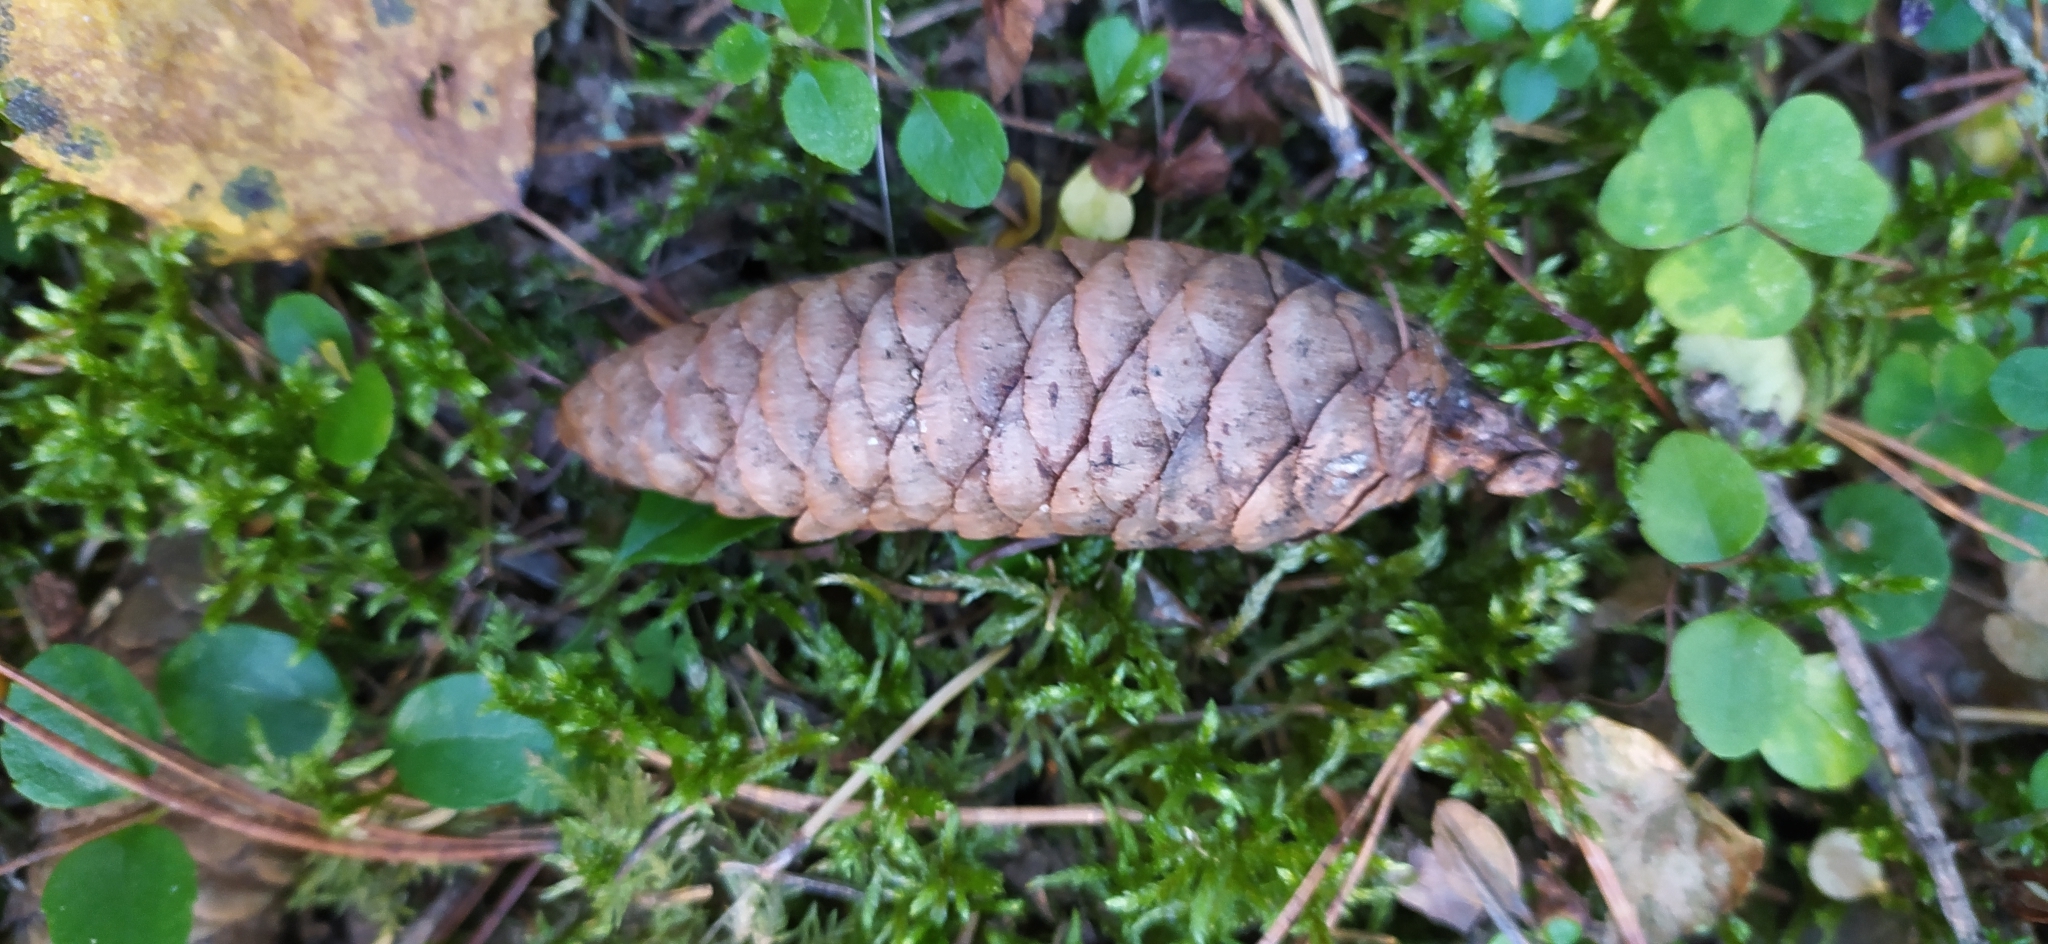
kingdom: Plantae
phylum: Tracheophyta
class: Pinopsida
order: Pinales
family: Pinaceae
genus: Picea
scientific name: Picea obovata
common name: Siberian spruce
